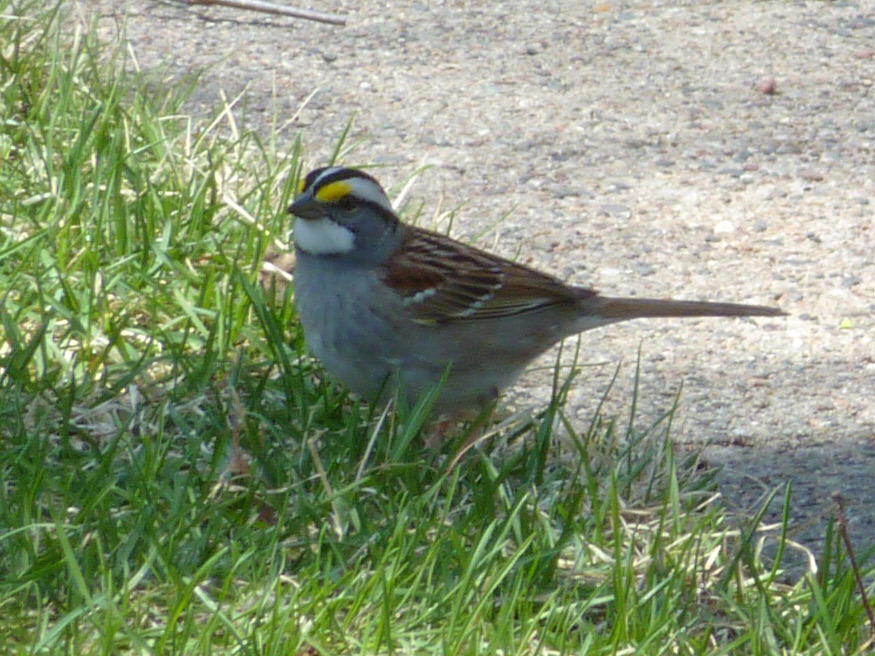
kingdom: Animalia
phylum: Chordata
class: Aves
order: Passeriformes
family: Passerellidae
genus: Zonotrichia
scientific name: Zonotrichia albicollis
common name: White-throated sparrow
